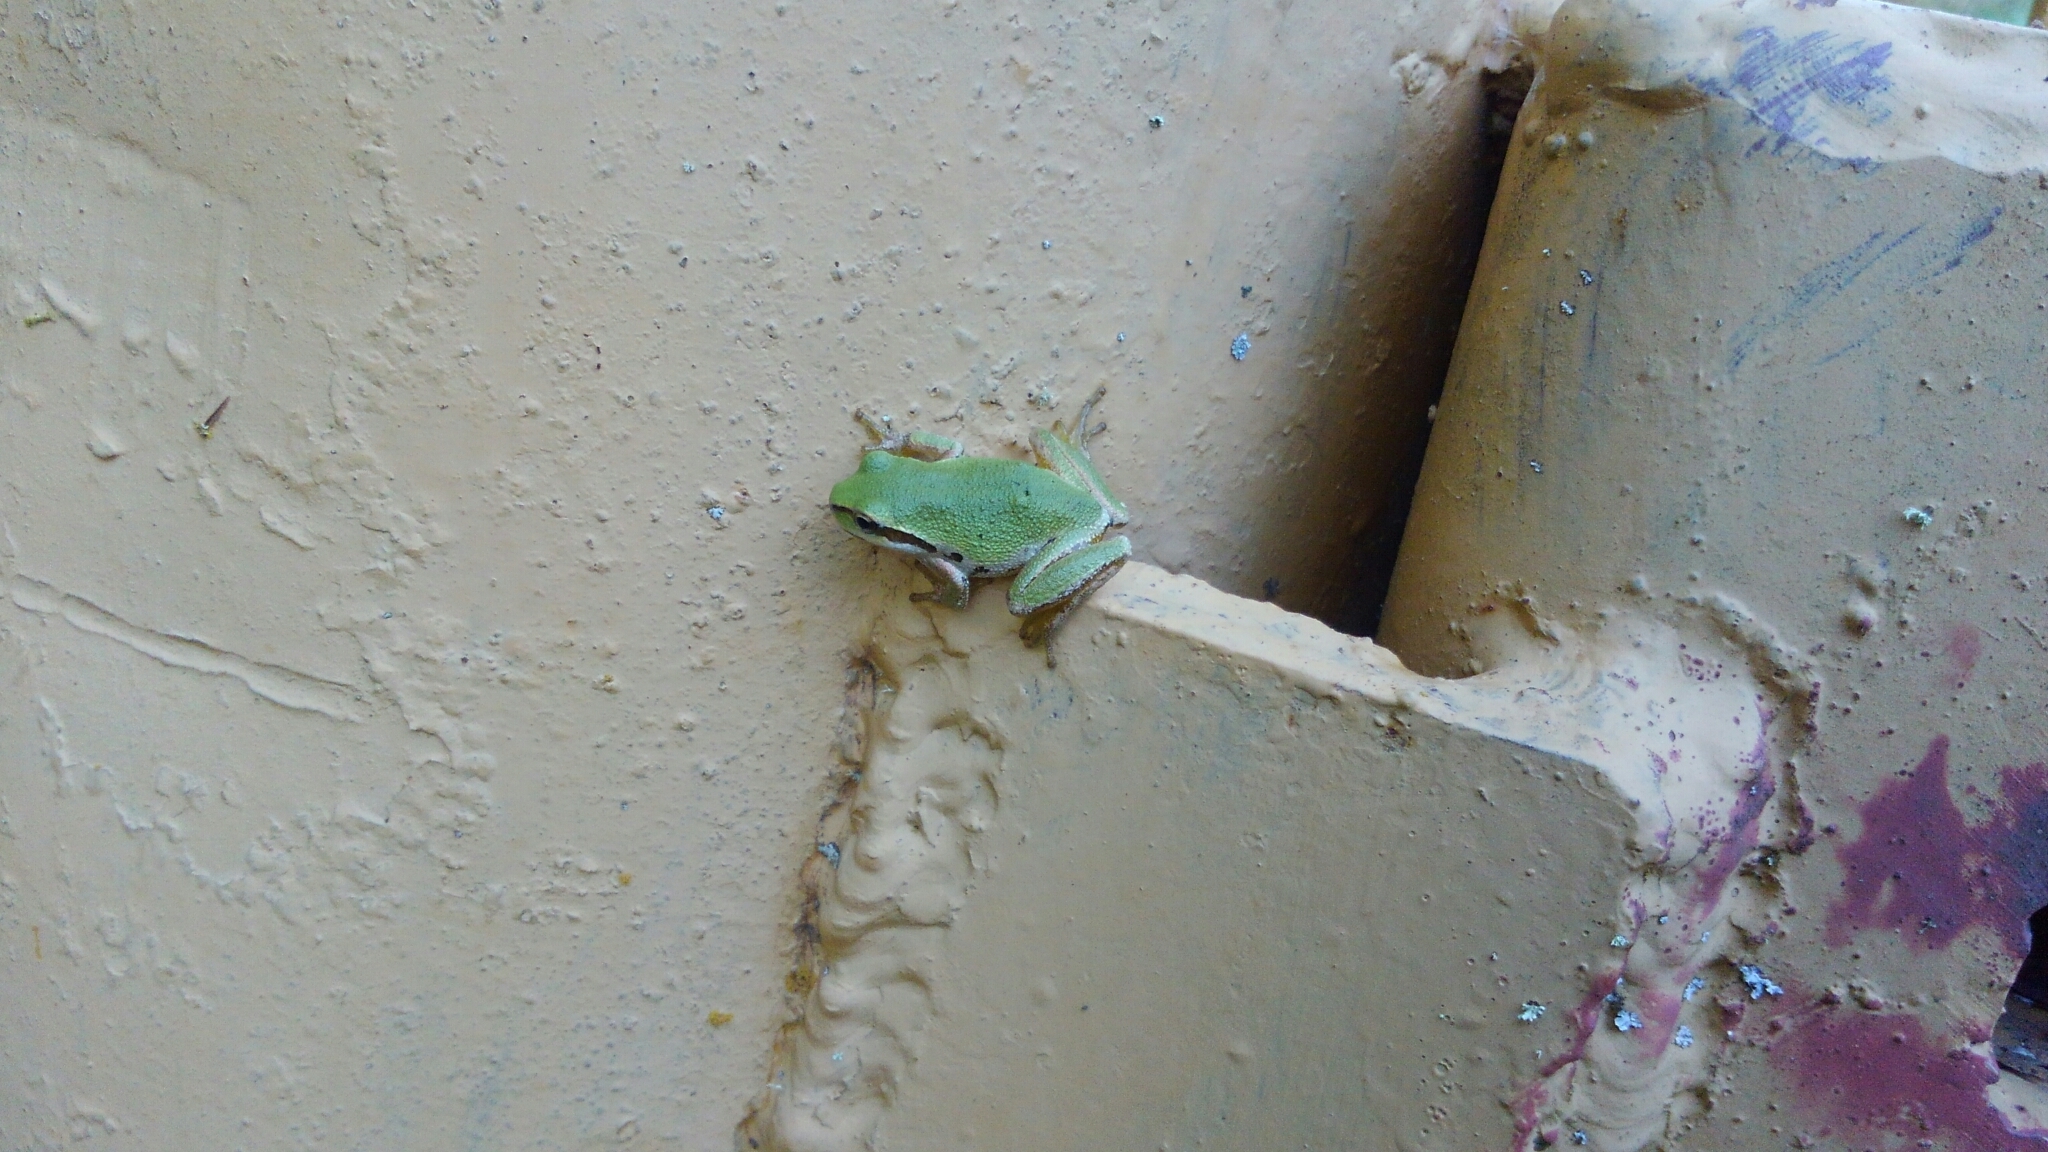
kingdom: Animalia
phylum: Chordata
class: Amphibia
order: Anura
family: Hylidae
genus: Pseudacris
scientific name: Pseudacris regilla
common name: Pacific chorus frog
